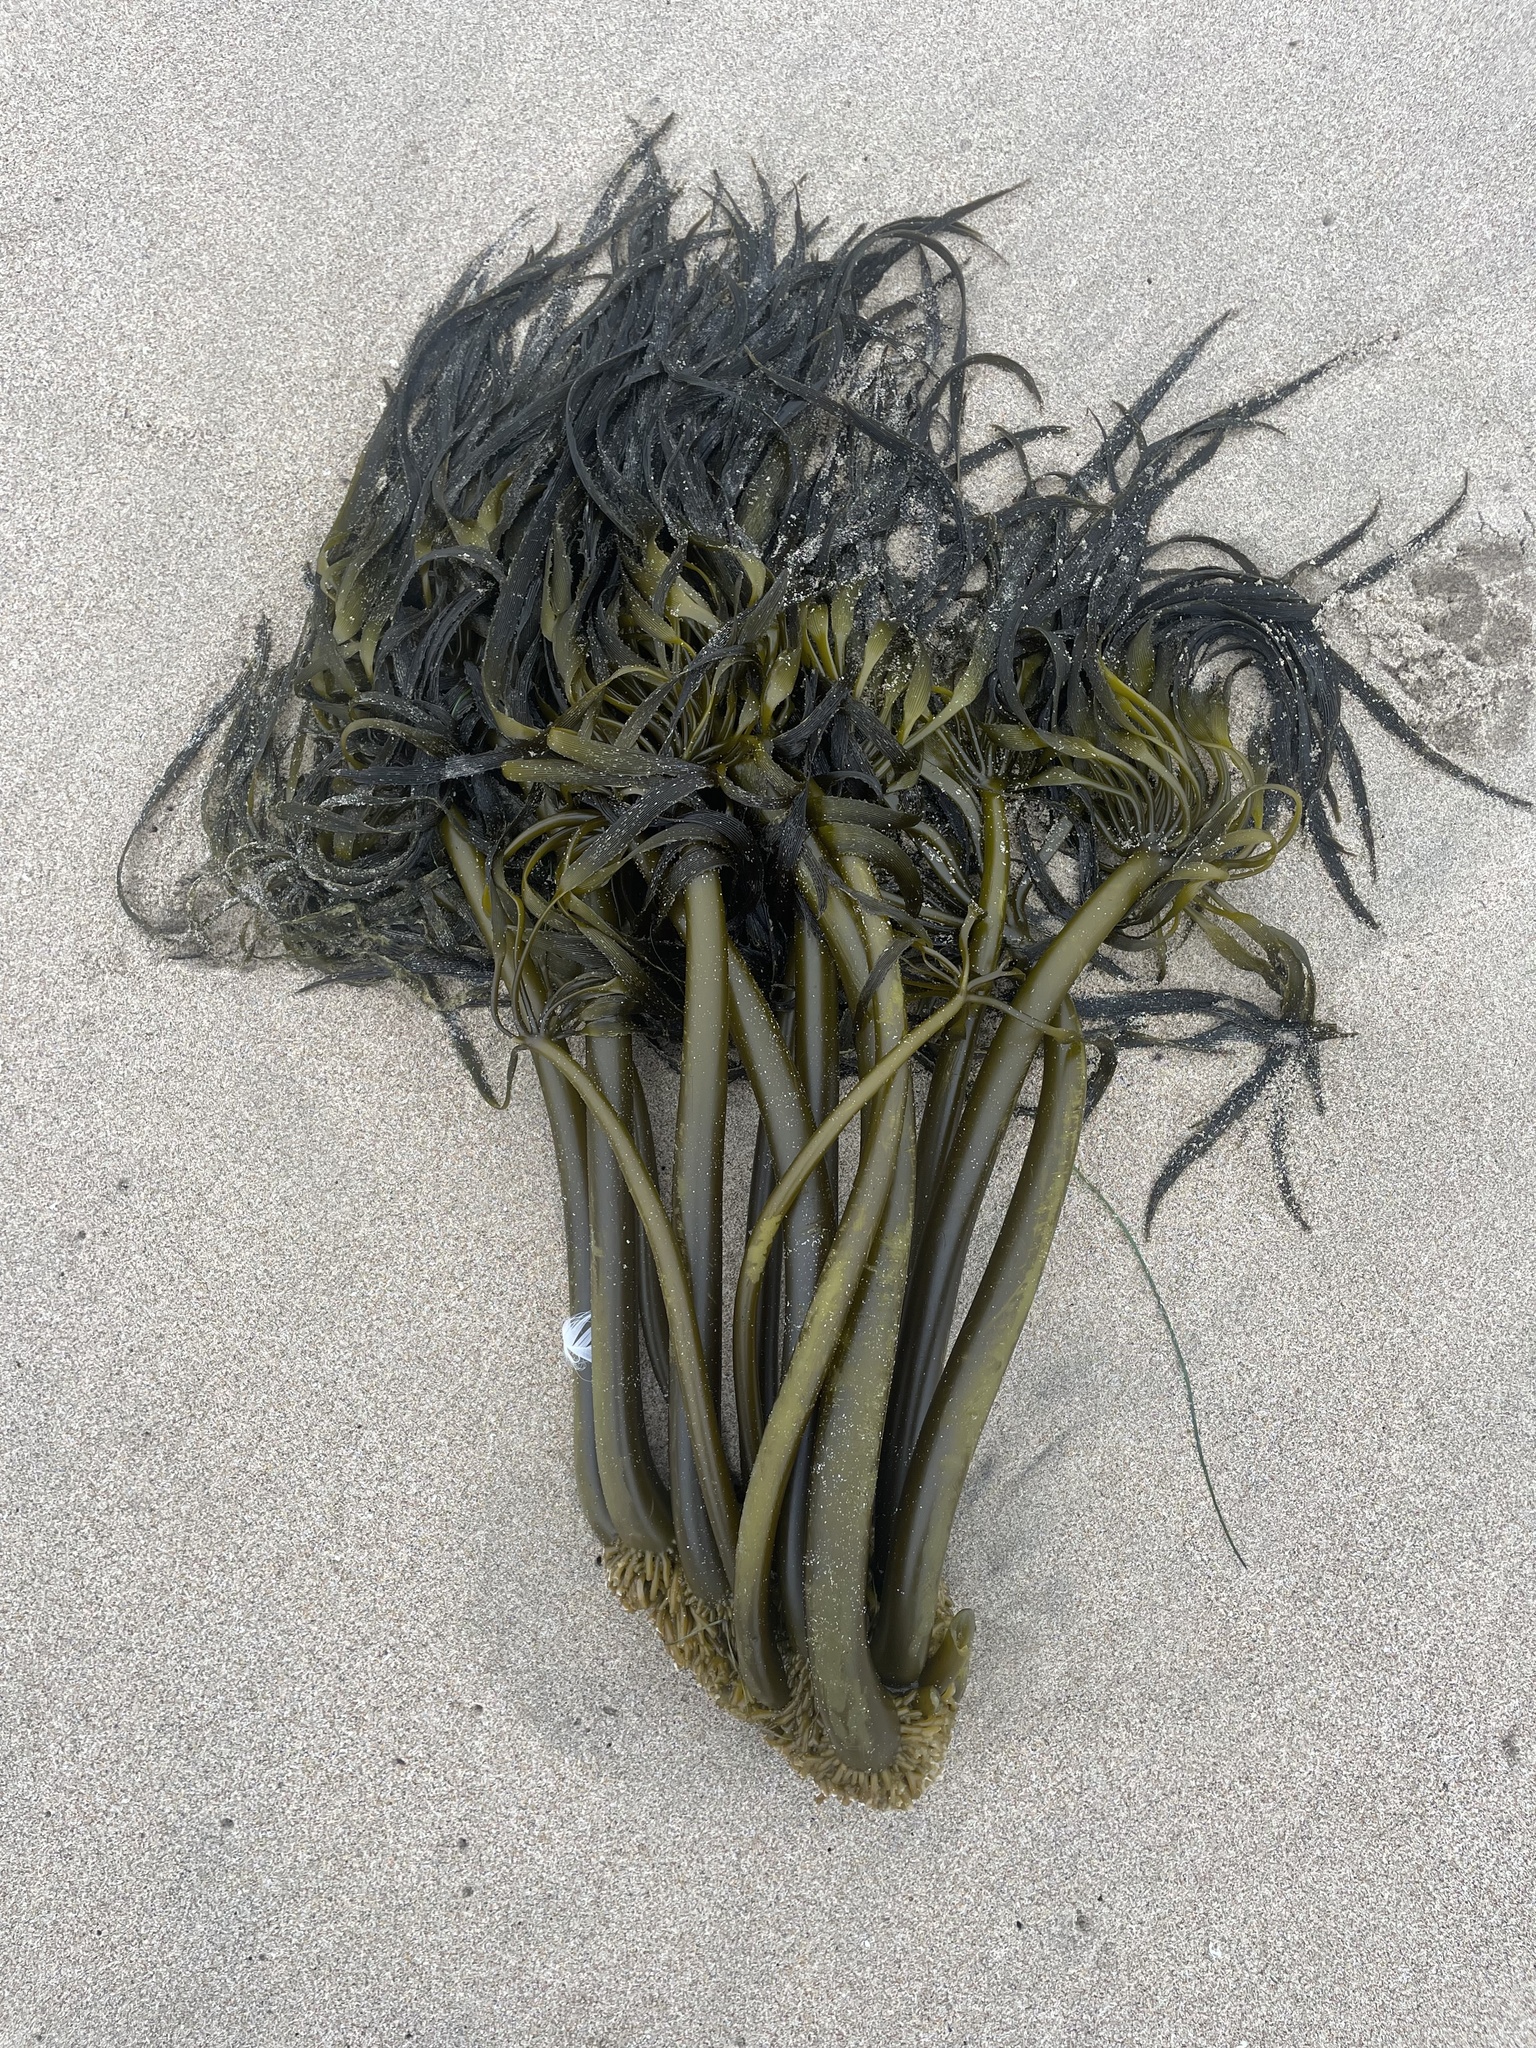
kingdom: Chromista
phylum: Ochrophyta
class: Phaeophyceae
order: Laminariales
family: Laminariaceae
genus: Postelsia
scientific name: Postelsia palmiformis
